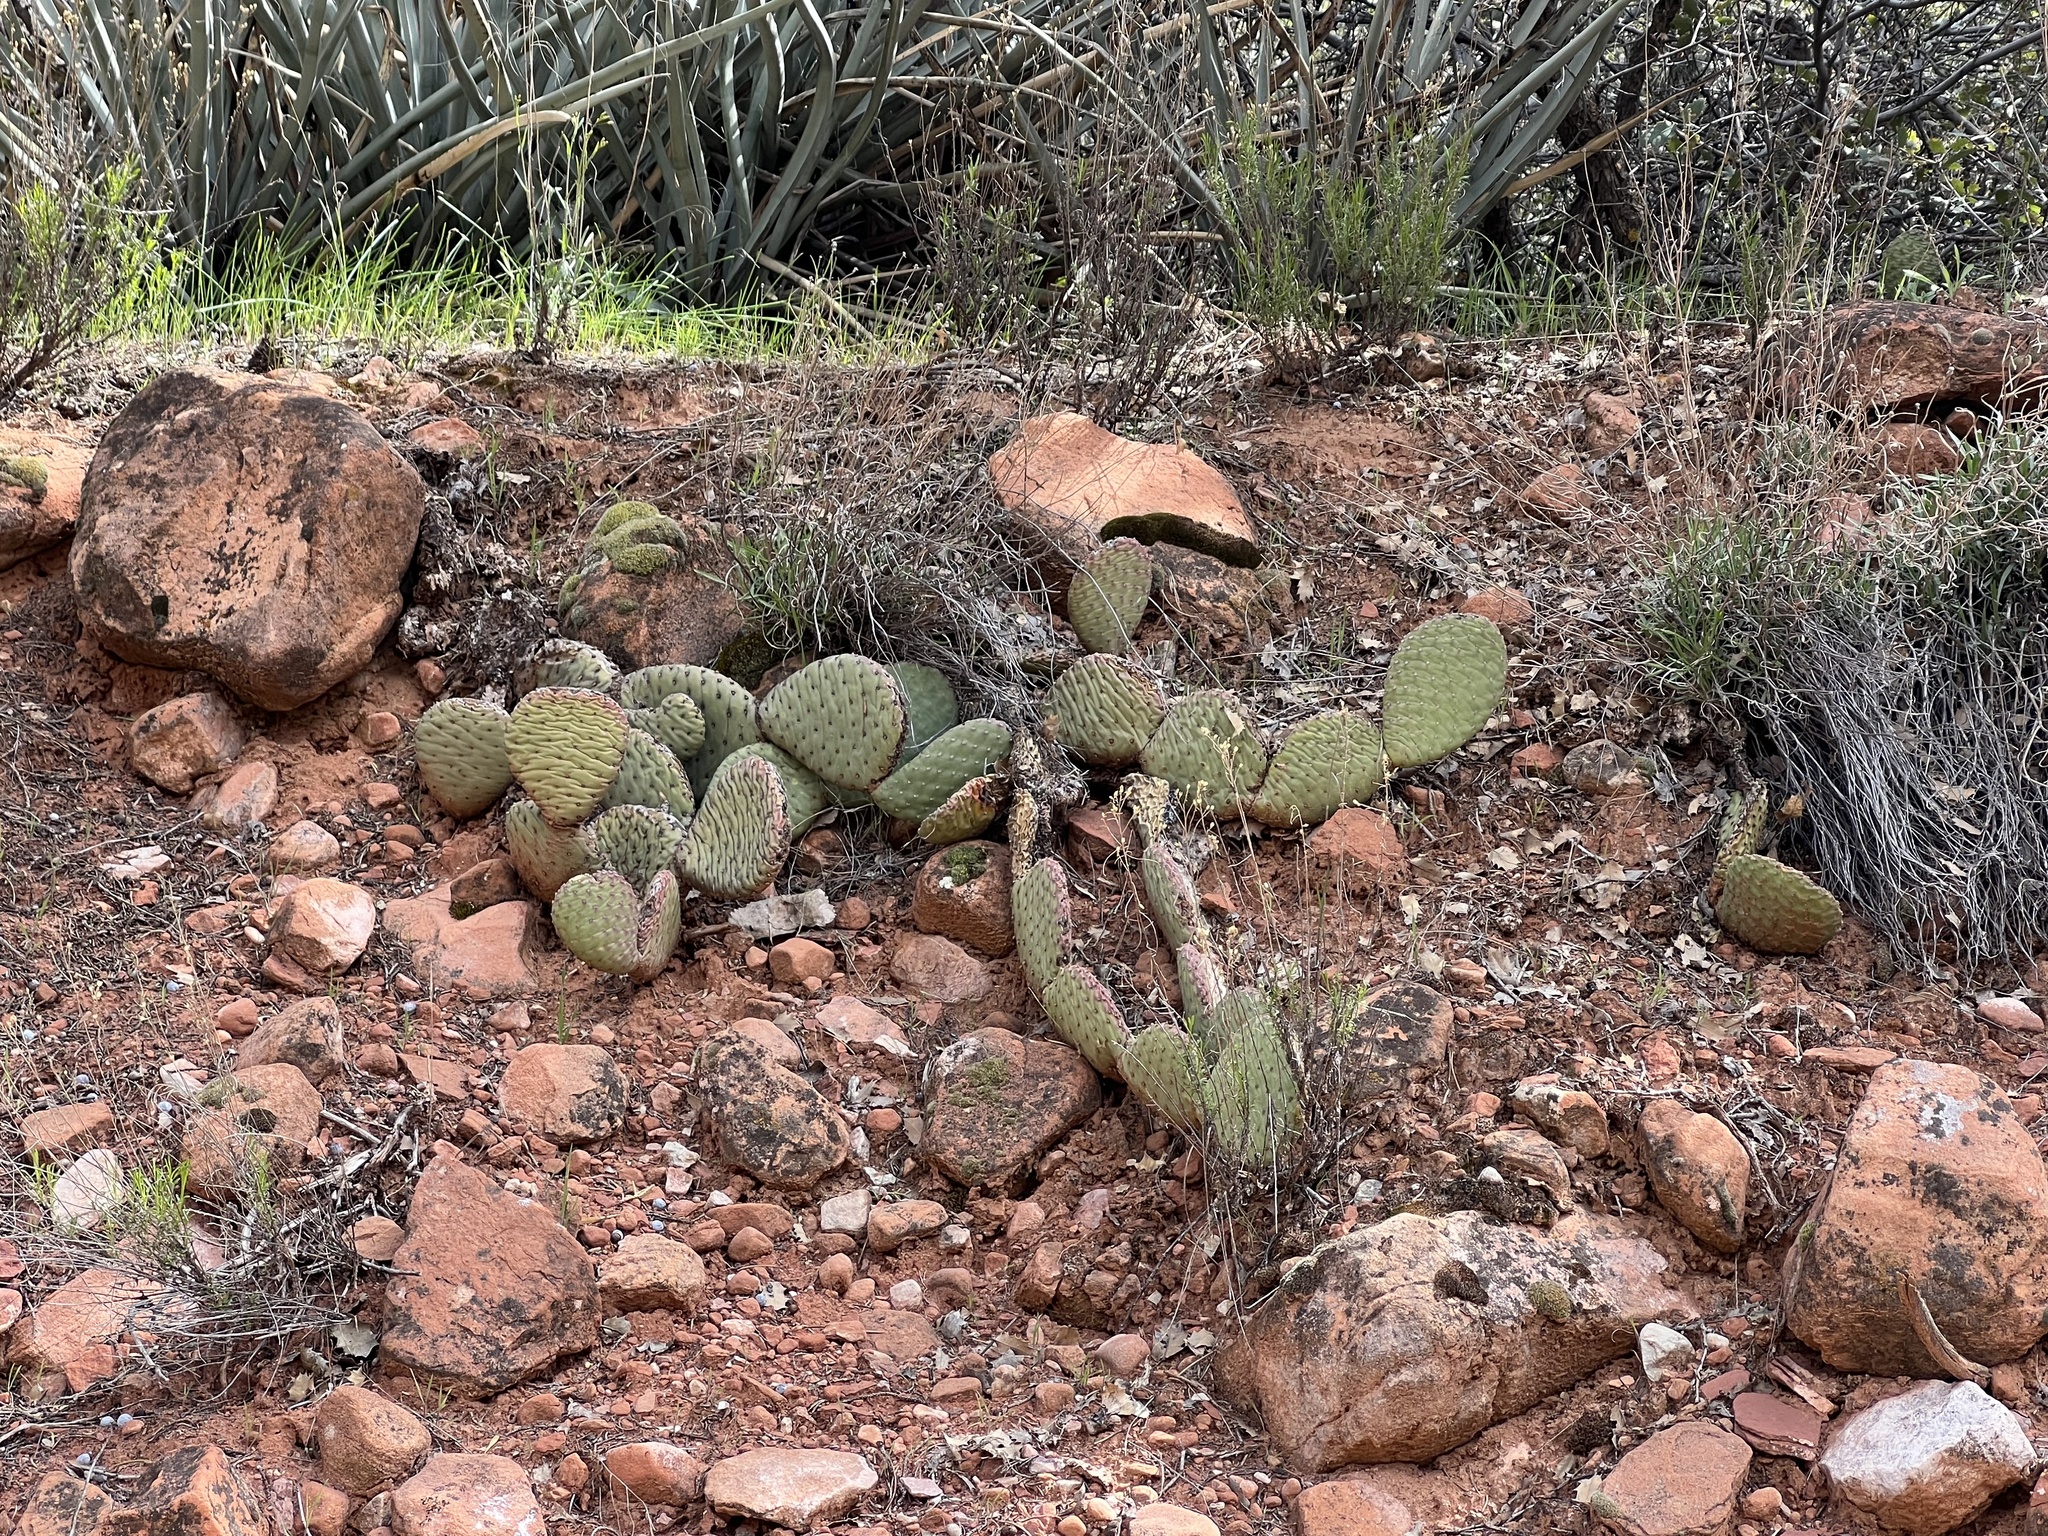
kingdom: Plantae
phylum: Tracheophyta
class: Magnoliopsida
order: Caryophyllales
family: Cactaceae
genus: Opuntia
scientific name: Opuntia aurea
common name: Golden prickly-pear
